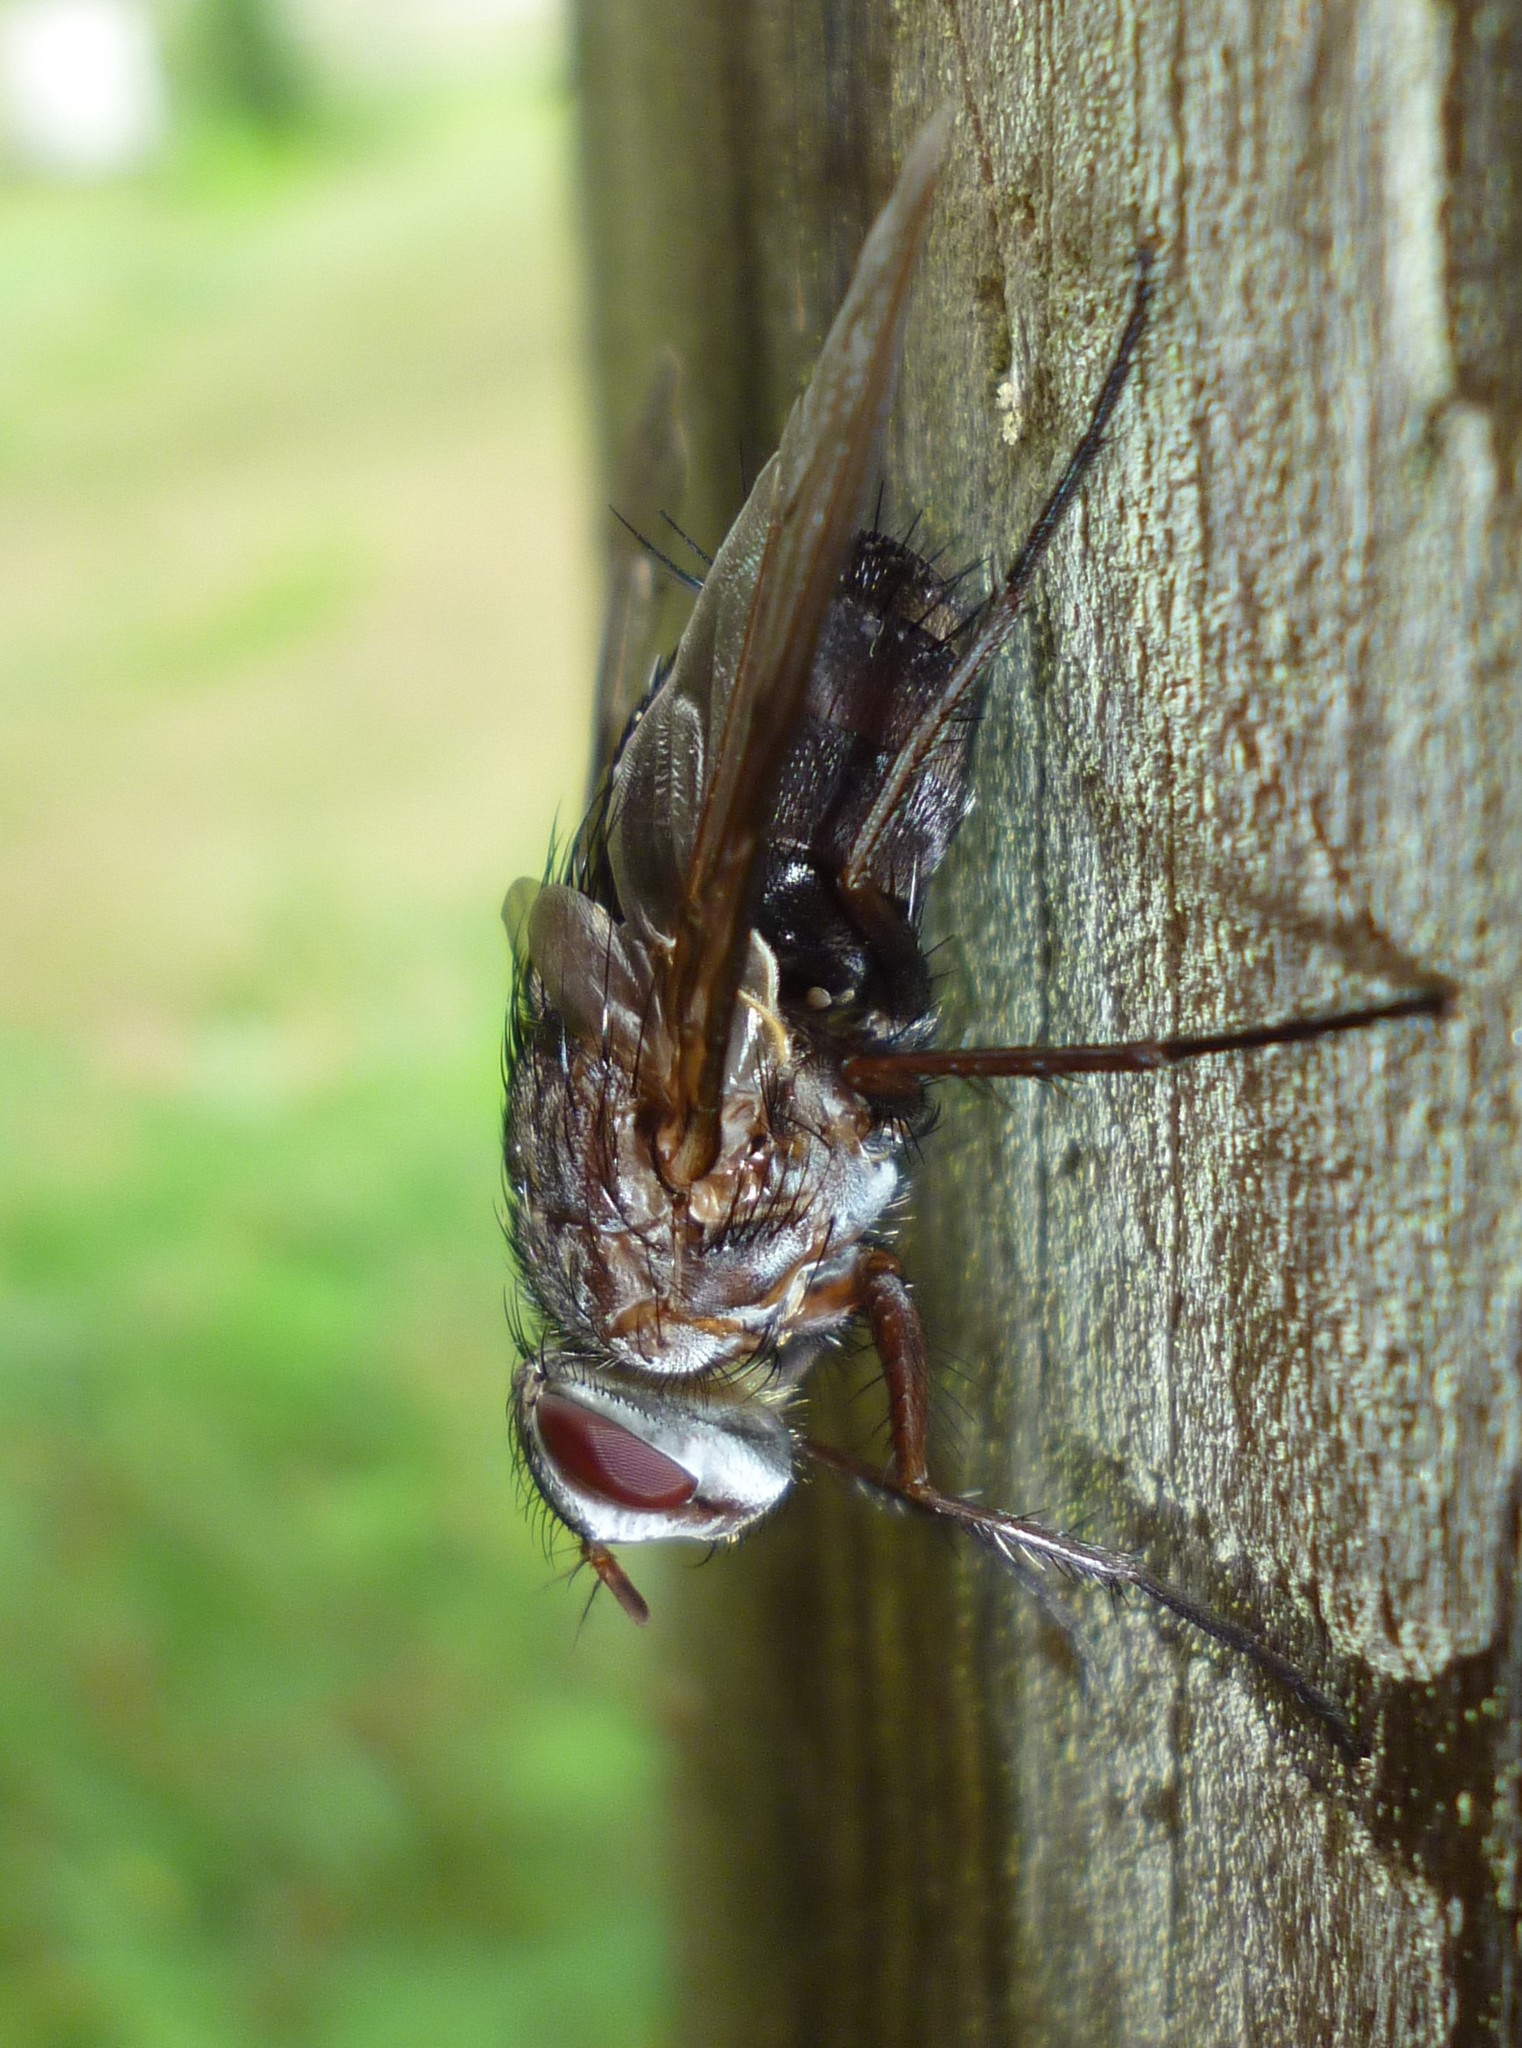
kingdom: Animalia
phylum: Arthropoda
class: Insecta
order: Diptera
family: Tachinidae
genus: Billaea
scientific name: Billaea rutilans
